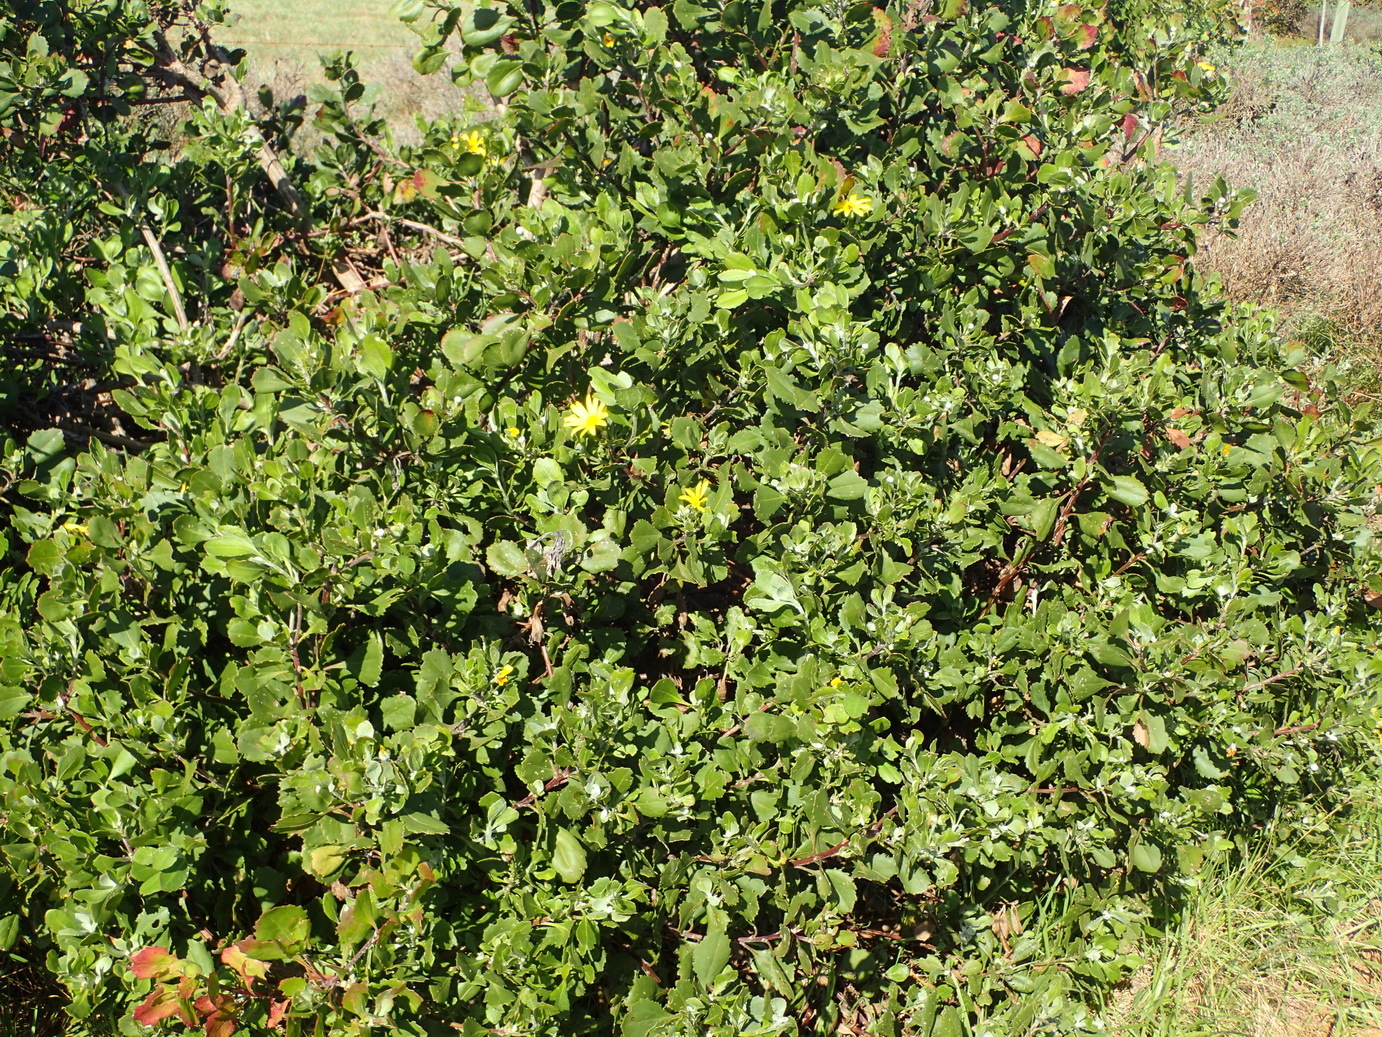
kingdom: Plantae
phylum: Tracheophyta
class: Magnoliopsida
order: Asterales
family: Asteraceae
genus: Osteospermum
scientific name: Osteospermum moniliferum
